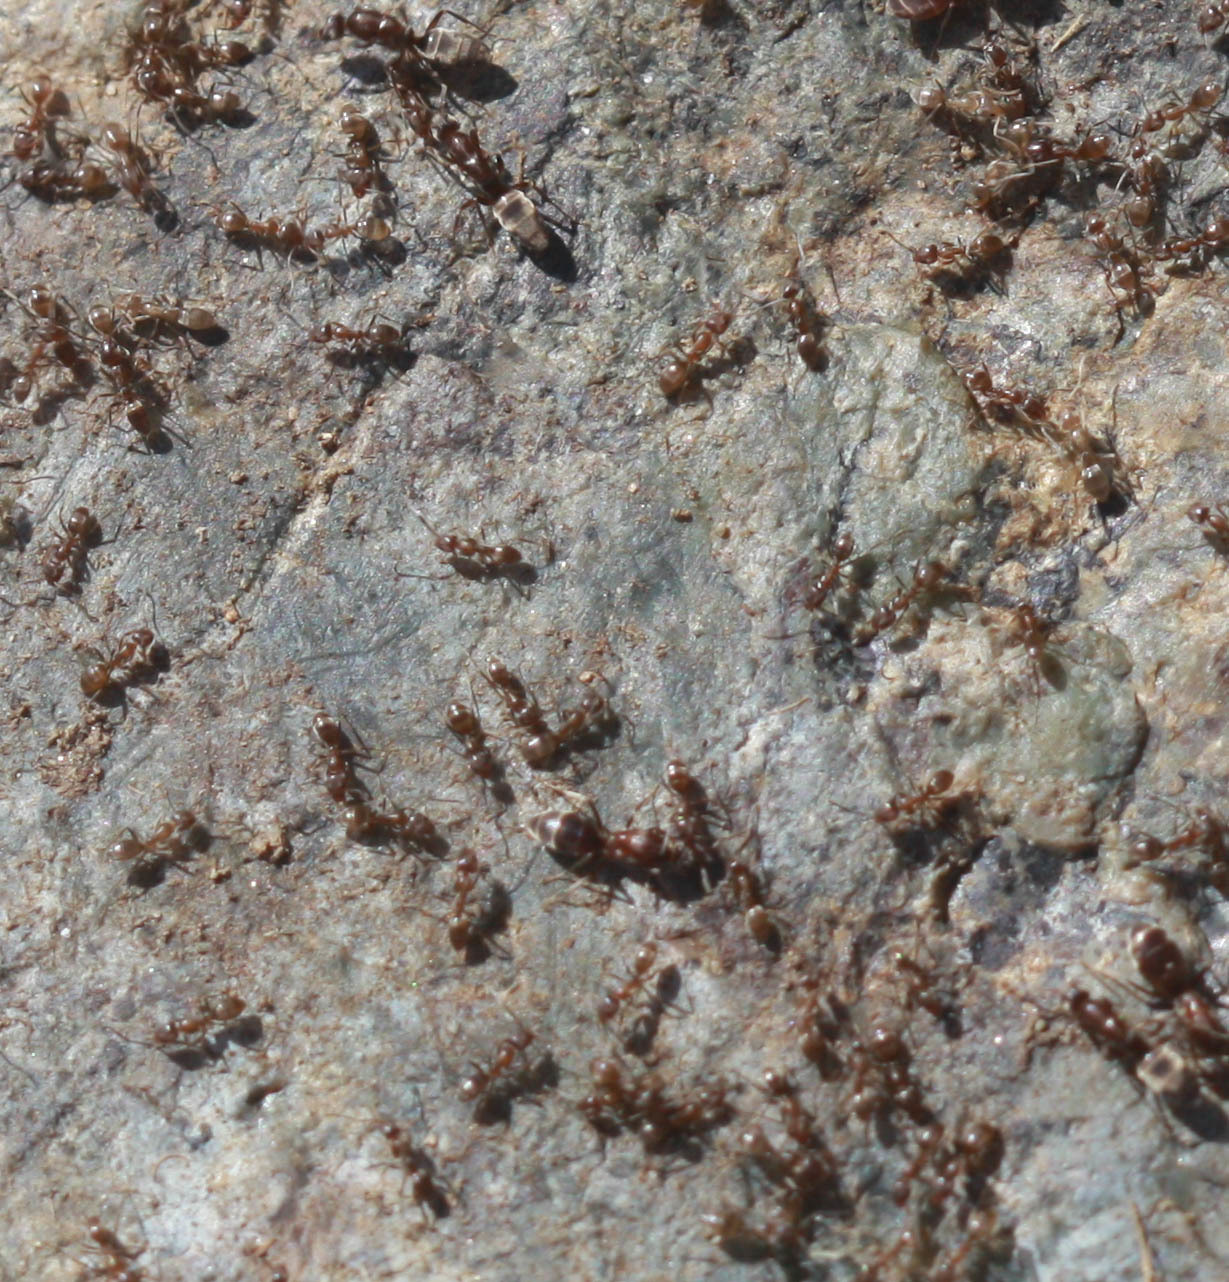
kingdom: Animalia
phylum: Arthropoda
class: Insecta
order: Hymenoptera
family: Formicidae
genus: Linepithema
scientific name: Linepithema humile
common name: Argentine ant
